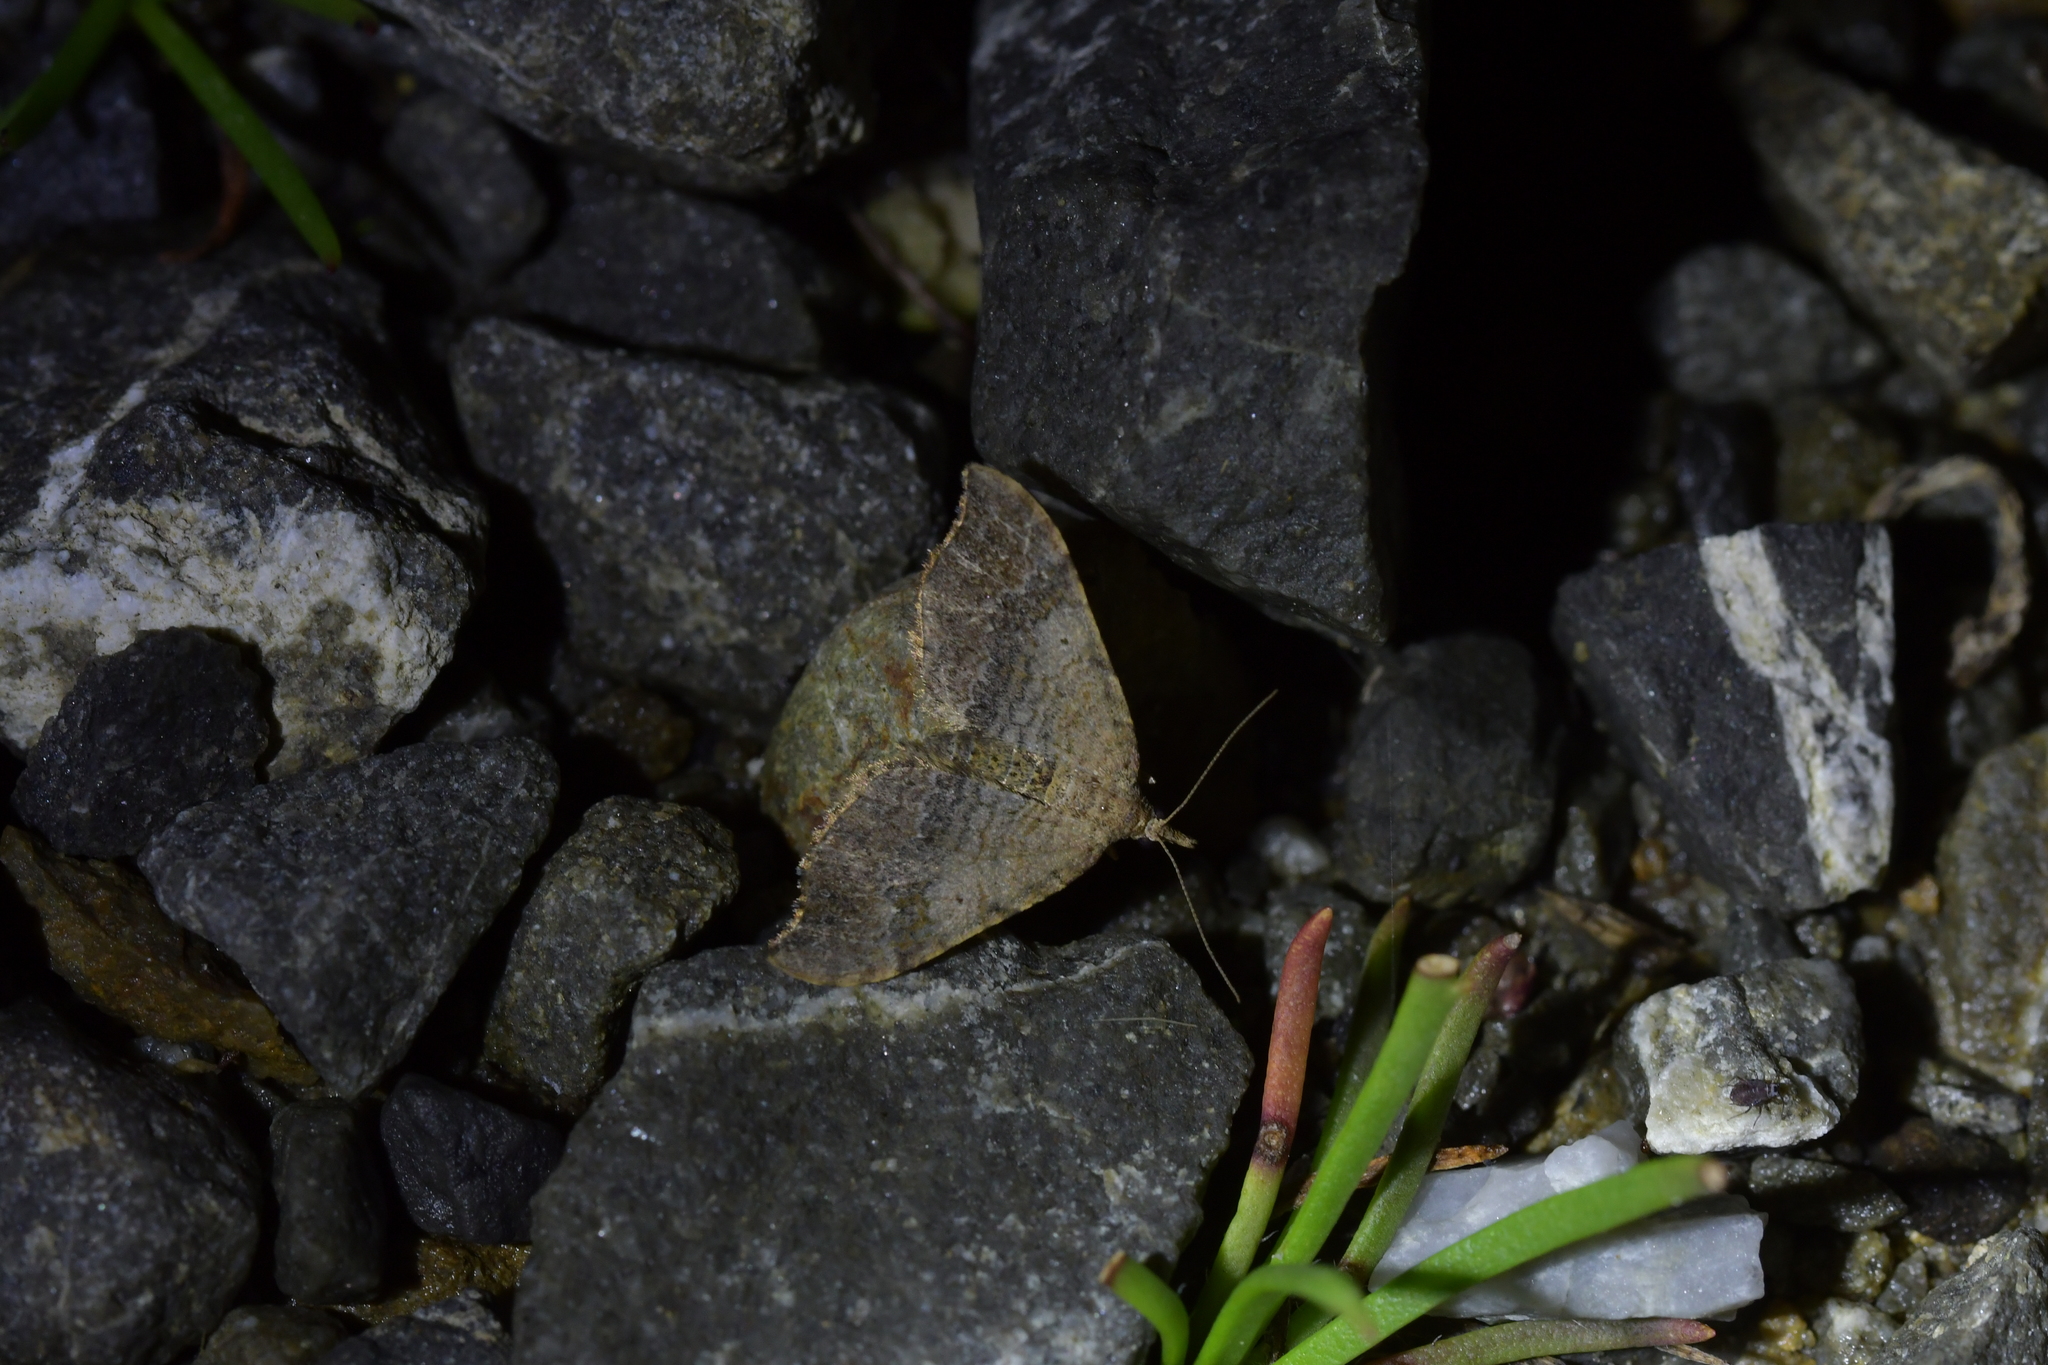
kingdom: Animalia
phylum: Arthropoda
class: Insecta
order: Lepidoptera
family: Geometridae
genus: Homodotis
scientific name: Homodotis megaspilata
